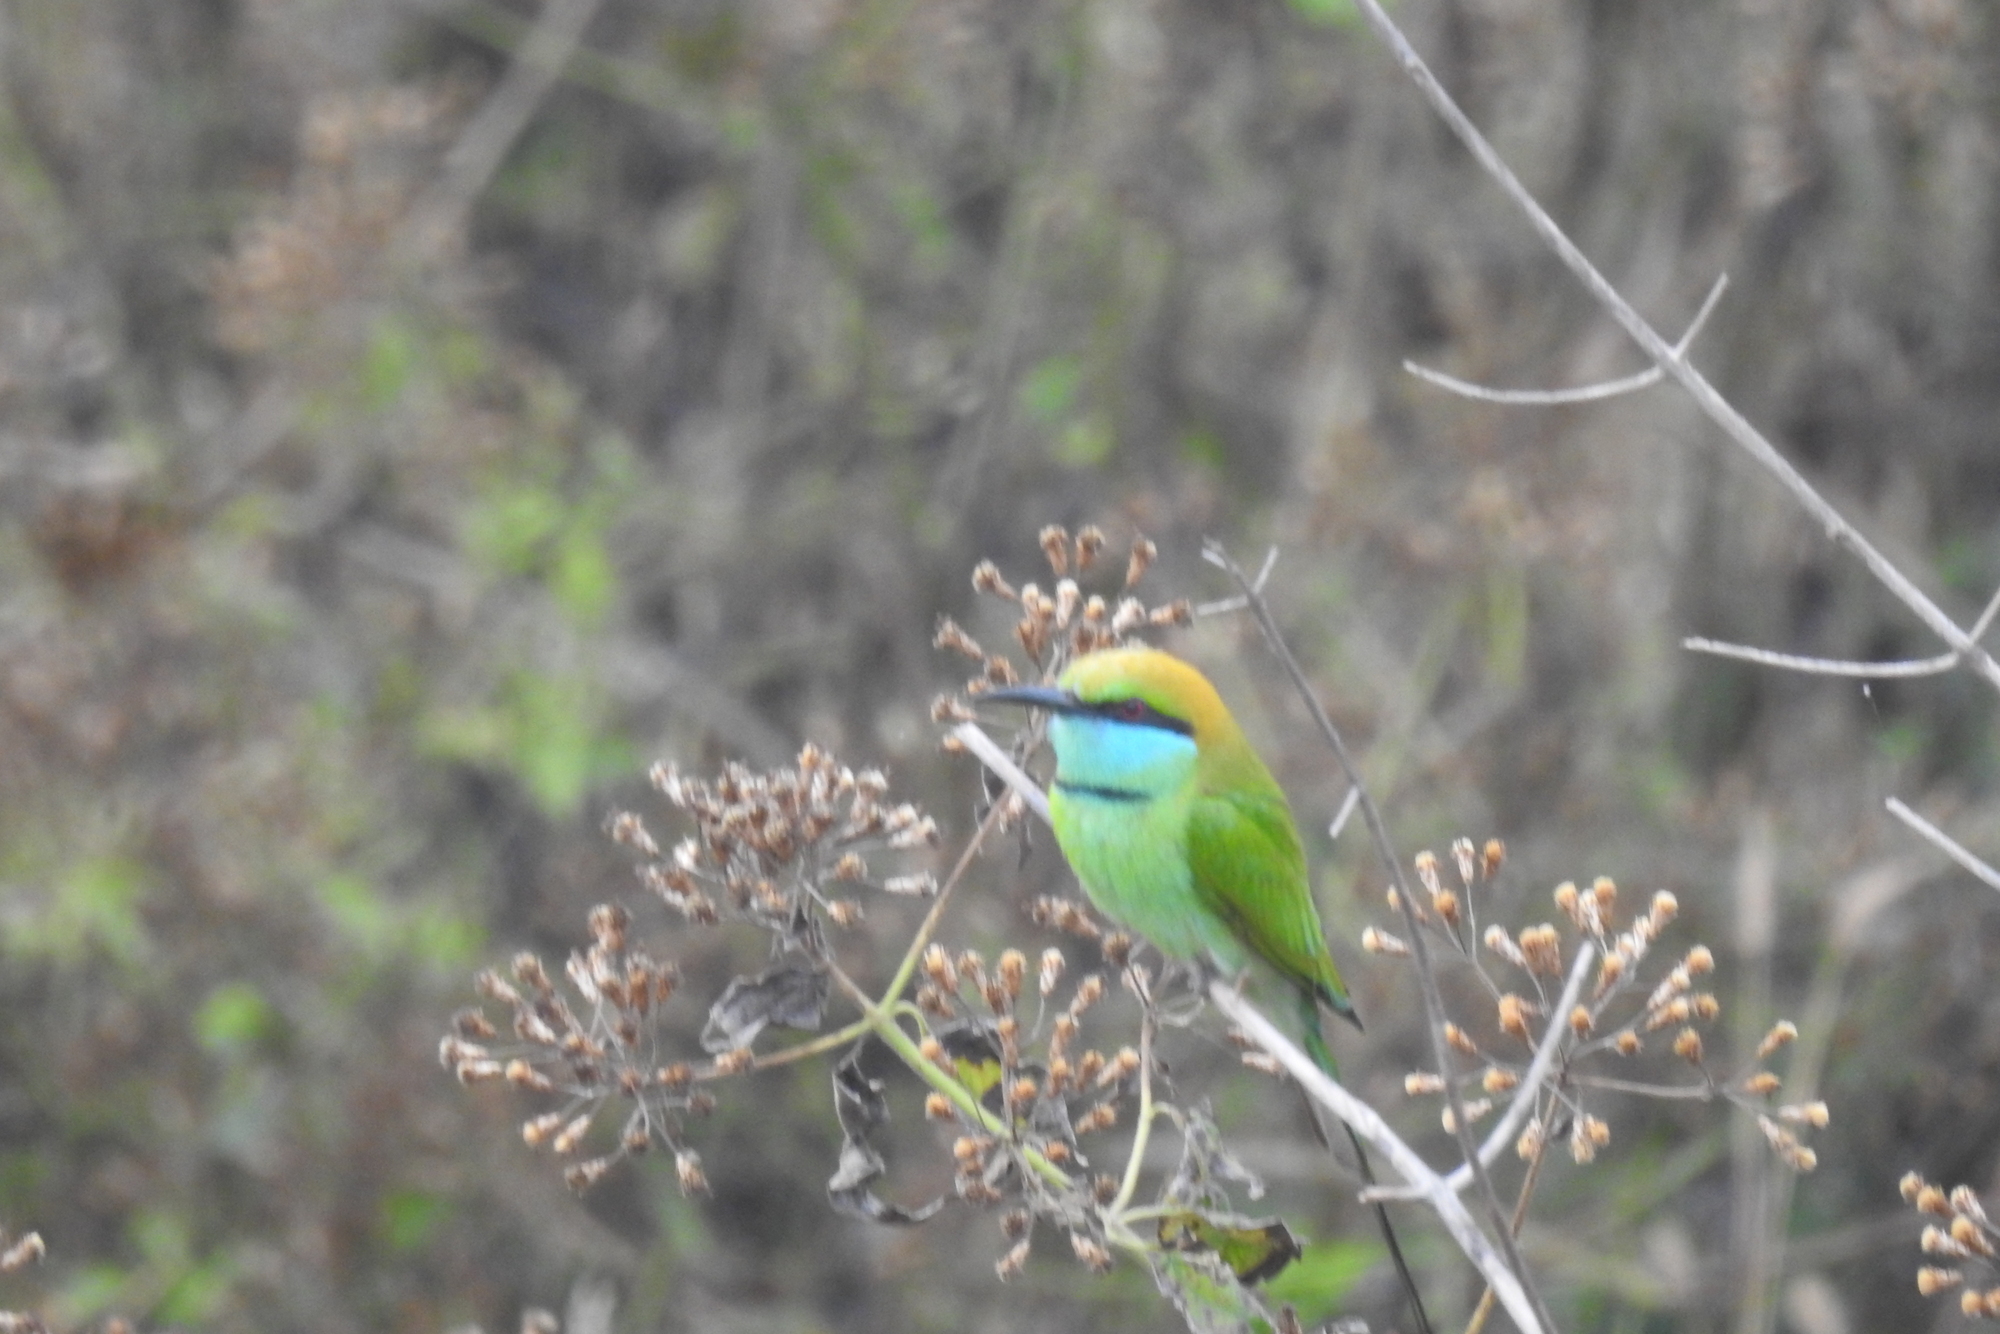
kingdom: Animalia
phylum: Chordata
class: Aves
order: Coraciiformes
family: Meropidae
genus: Merops
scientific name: Merops orientalis
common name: Green bee-eater
